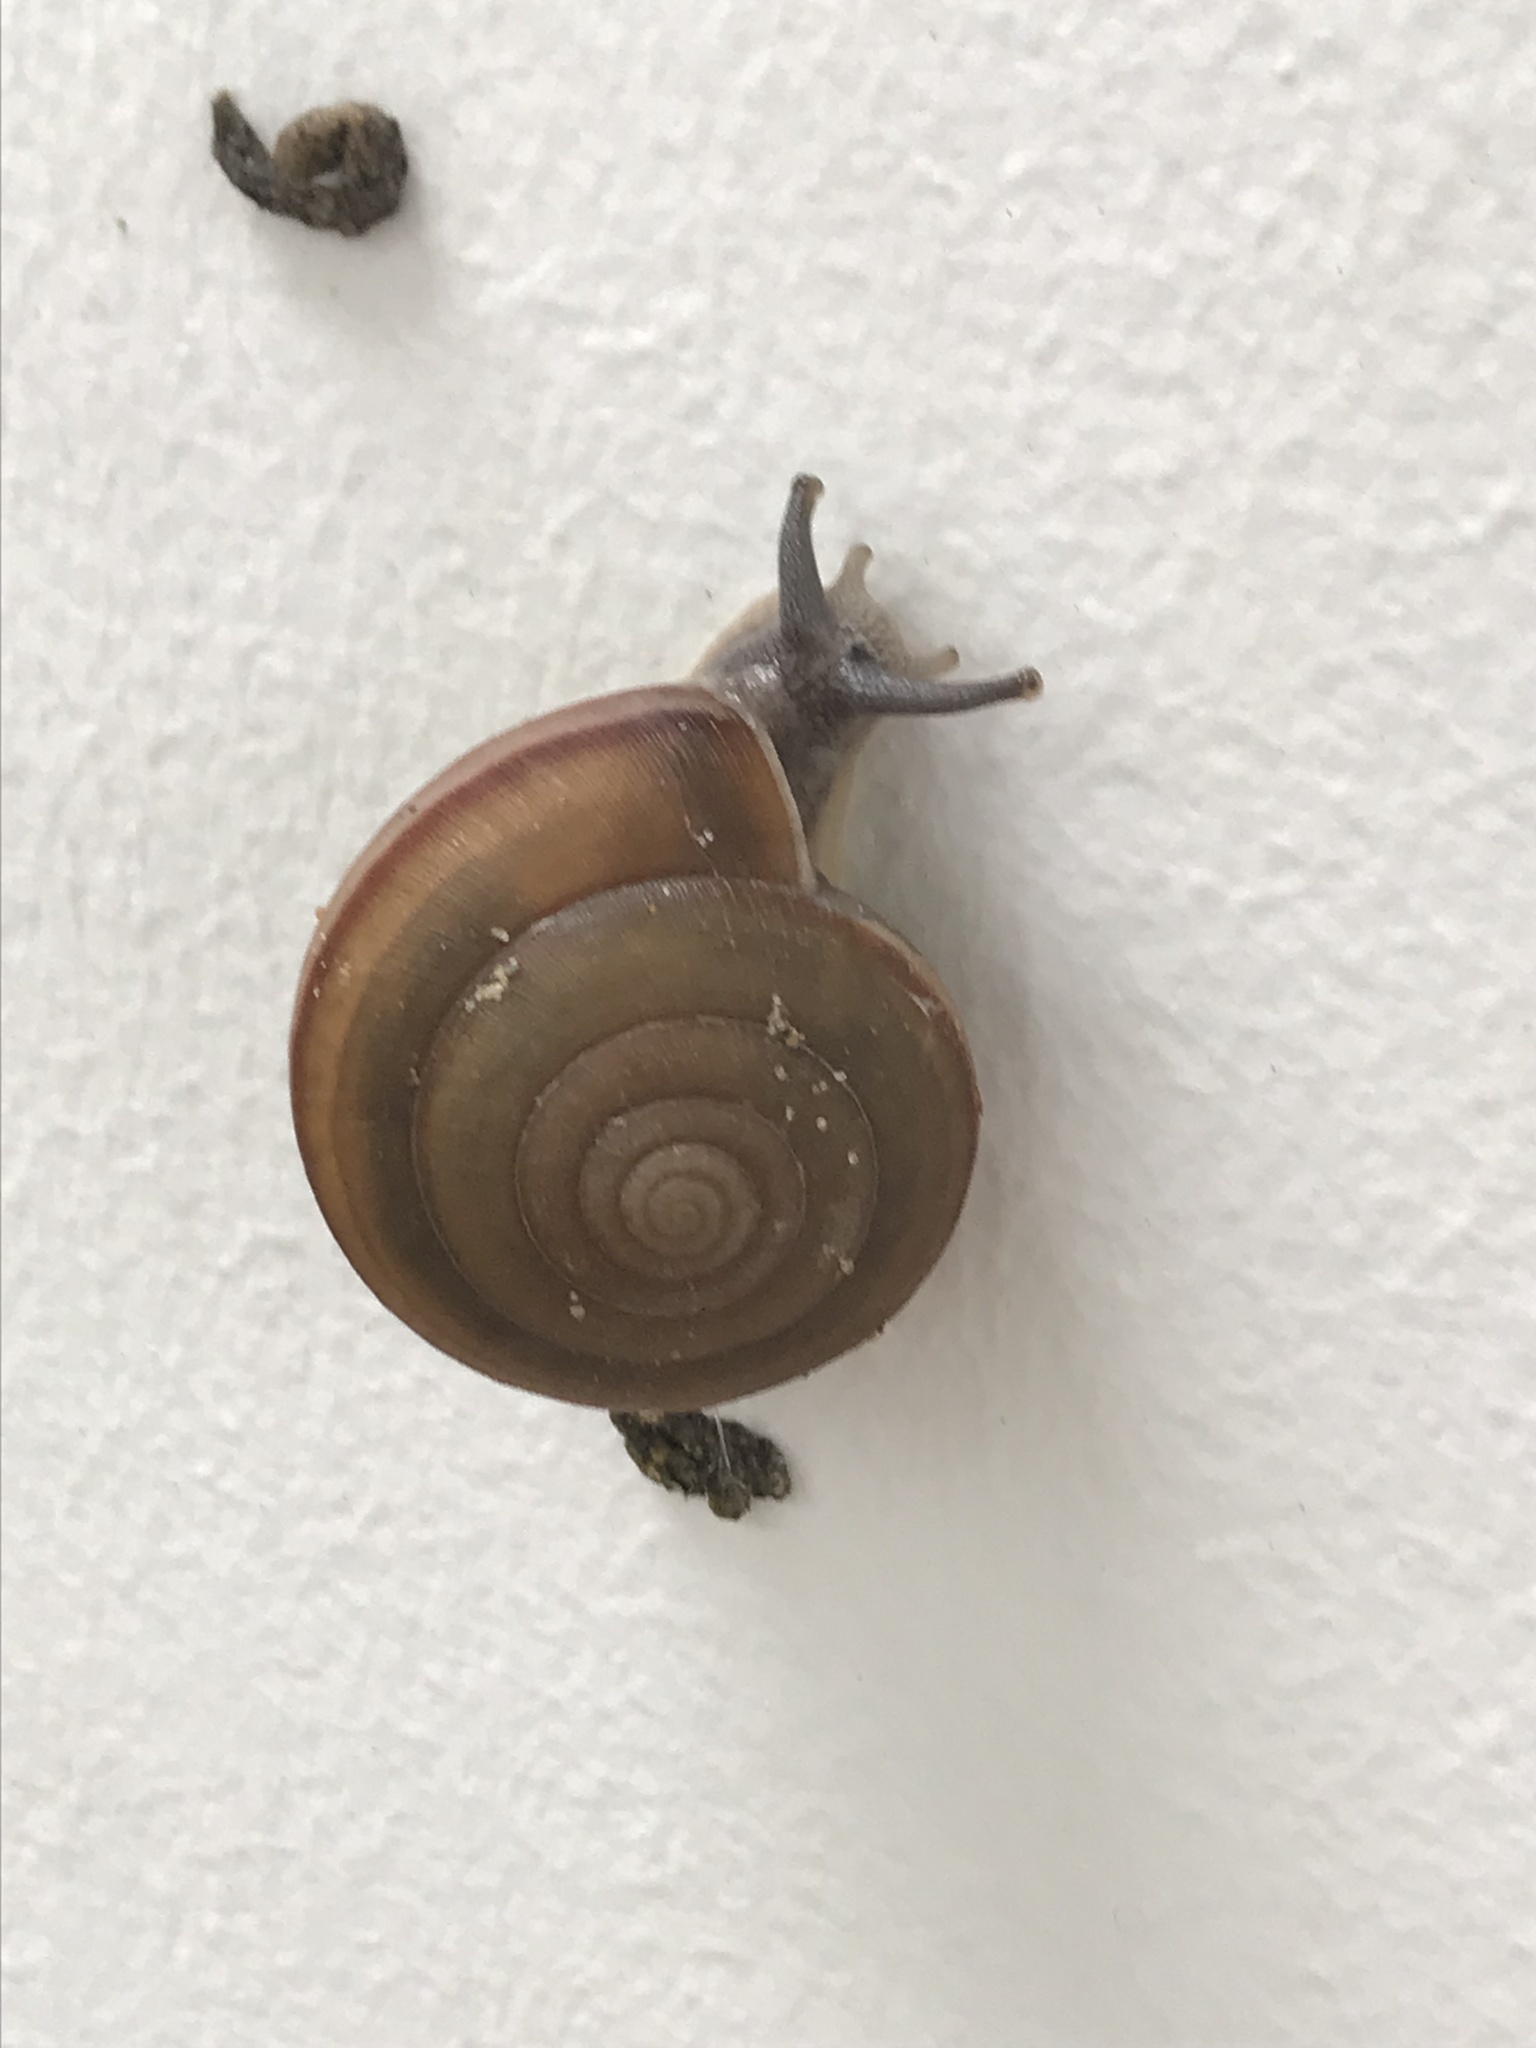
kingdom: Animalia
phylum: Mollusca
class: Gastropoda
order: Stylommatophora
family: Ariophantidae
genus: Sarika
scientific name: Sarika siamensis
